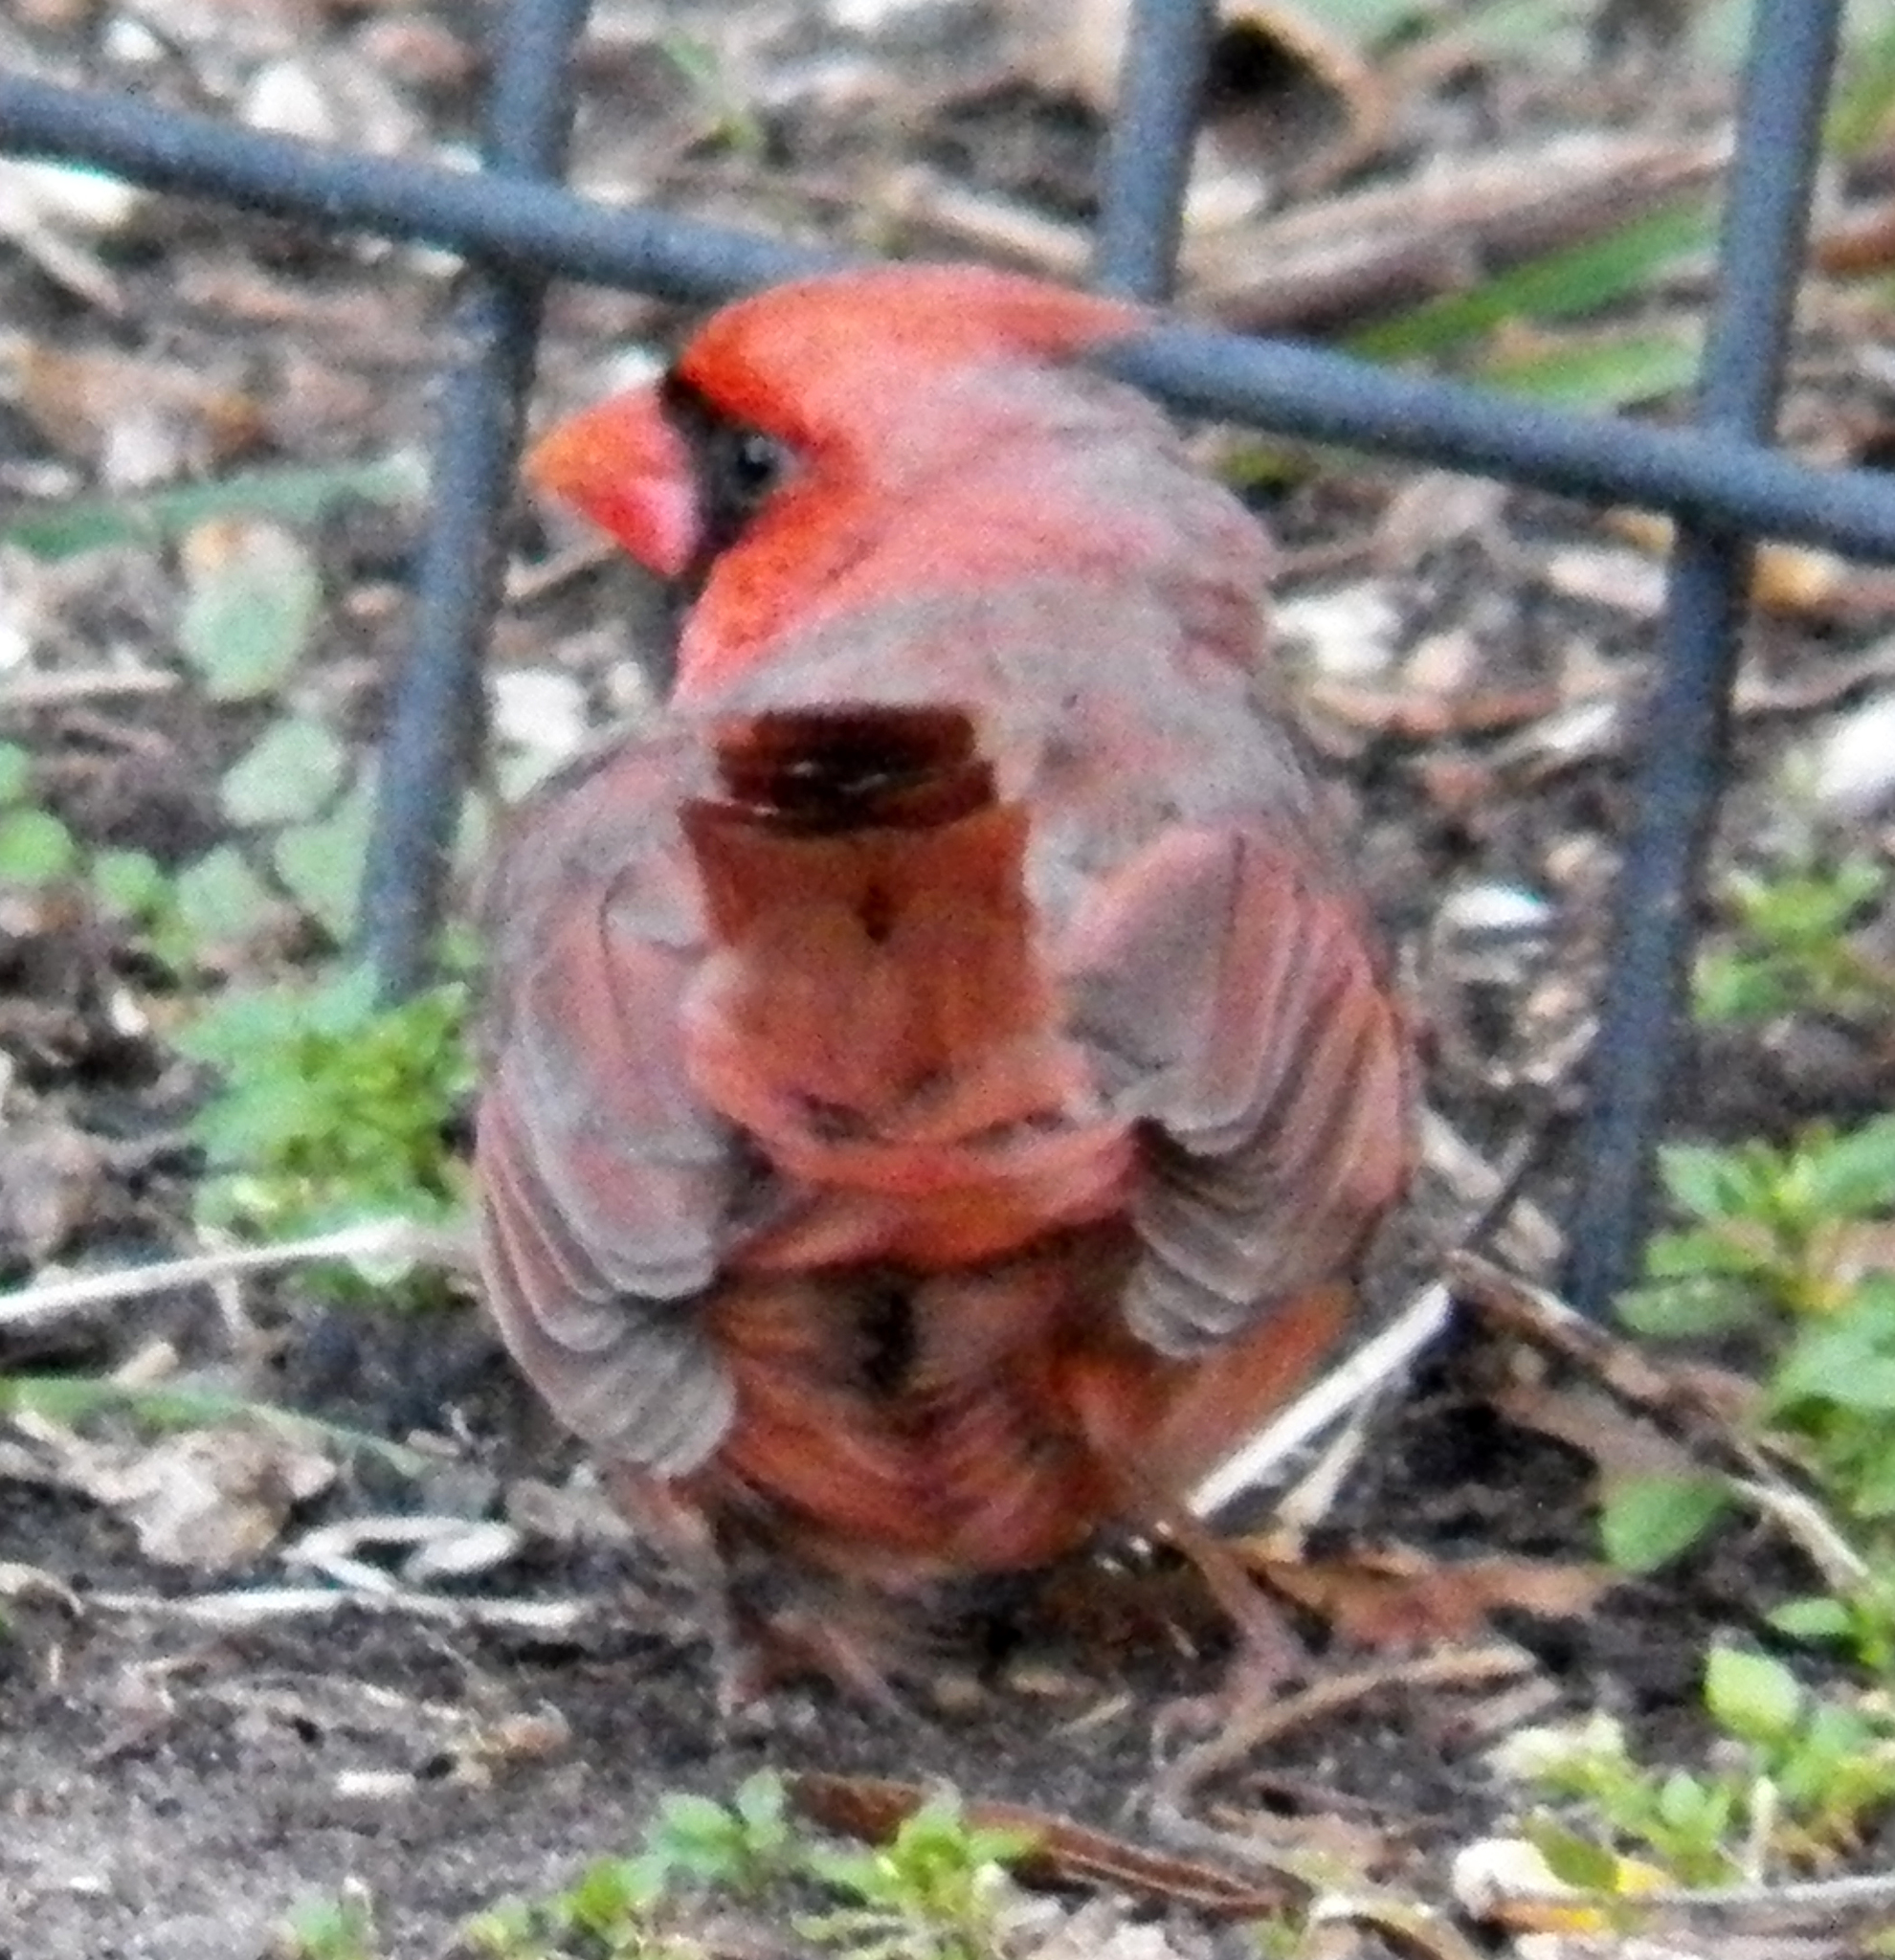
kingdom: Animalia
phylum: Chordata
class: Aves
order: Passeriformes
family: Cardinalidae
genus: Cardinalis
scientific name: Cardinalis cardinalis
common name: Northern cardinal
